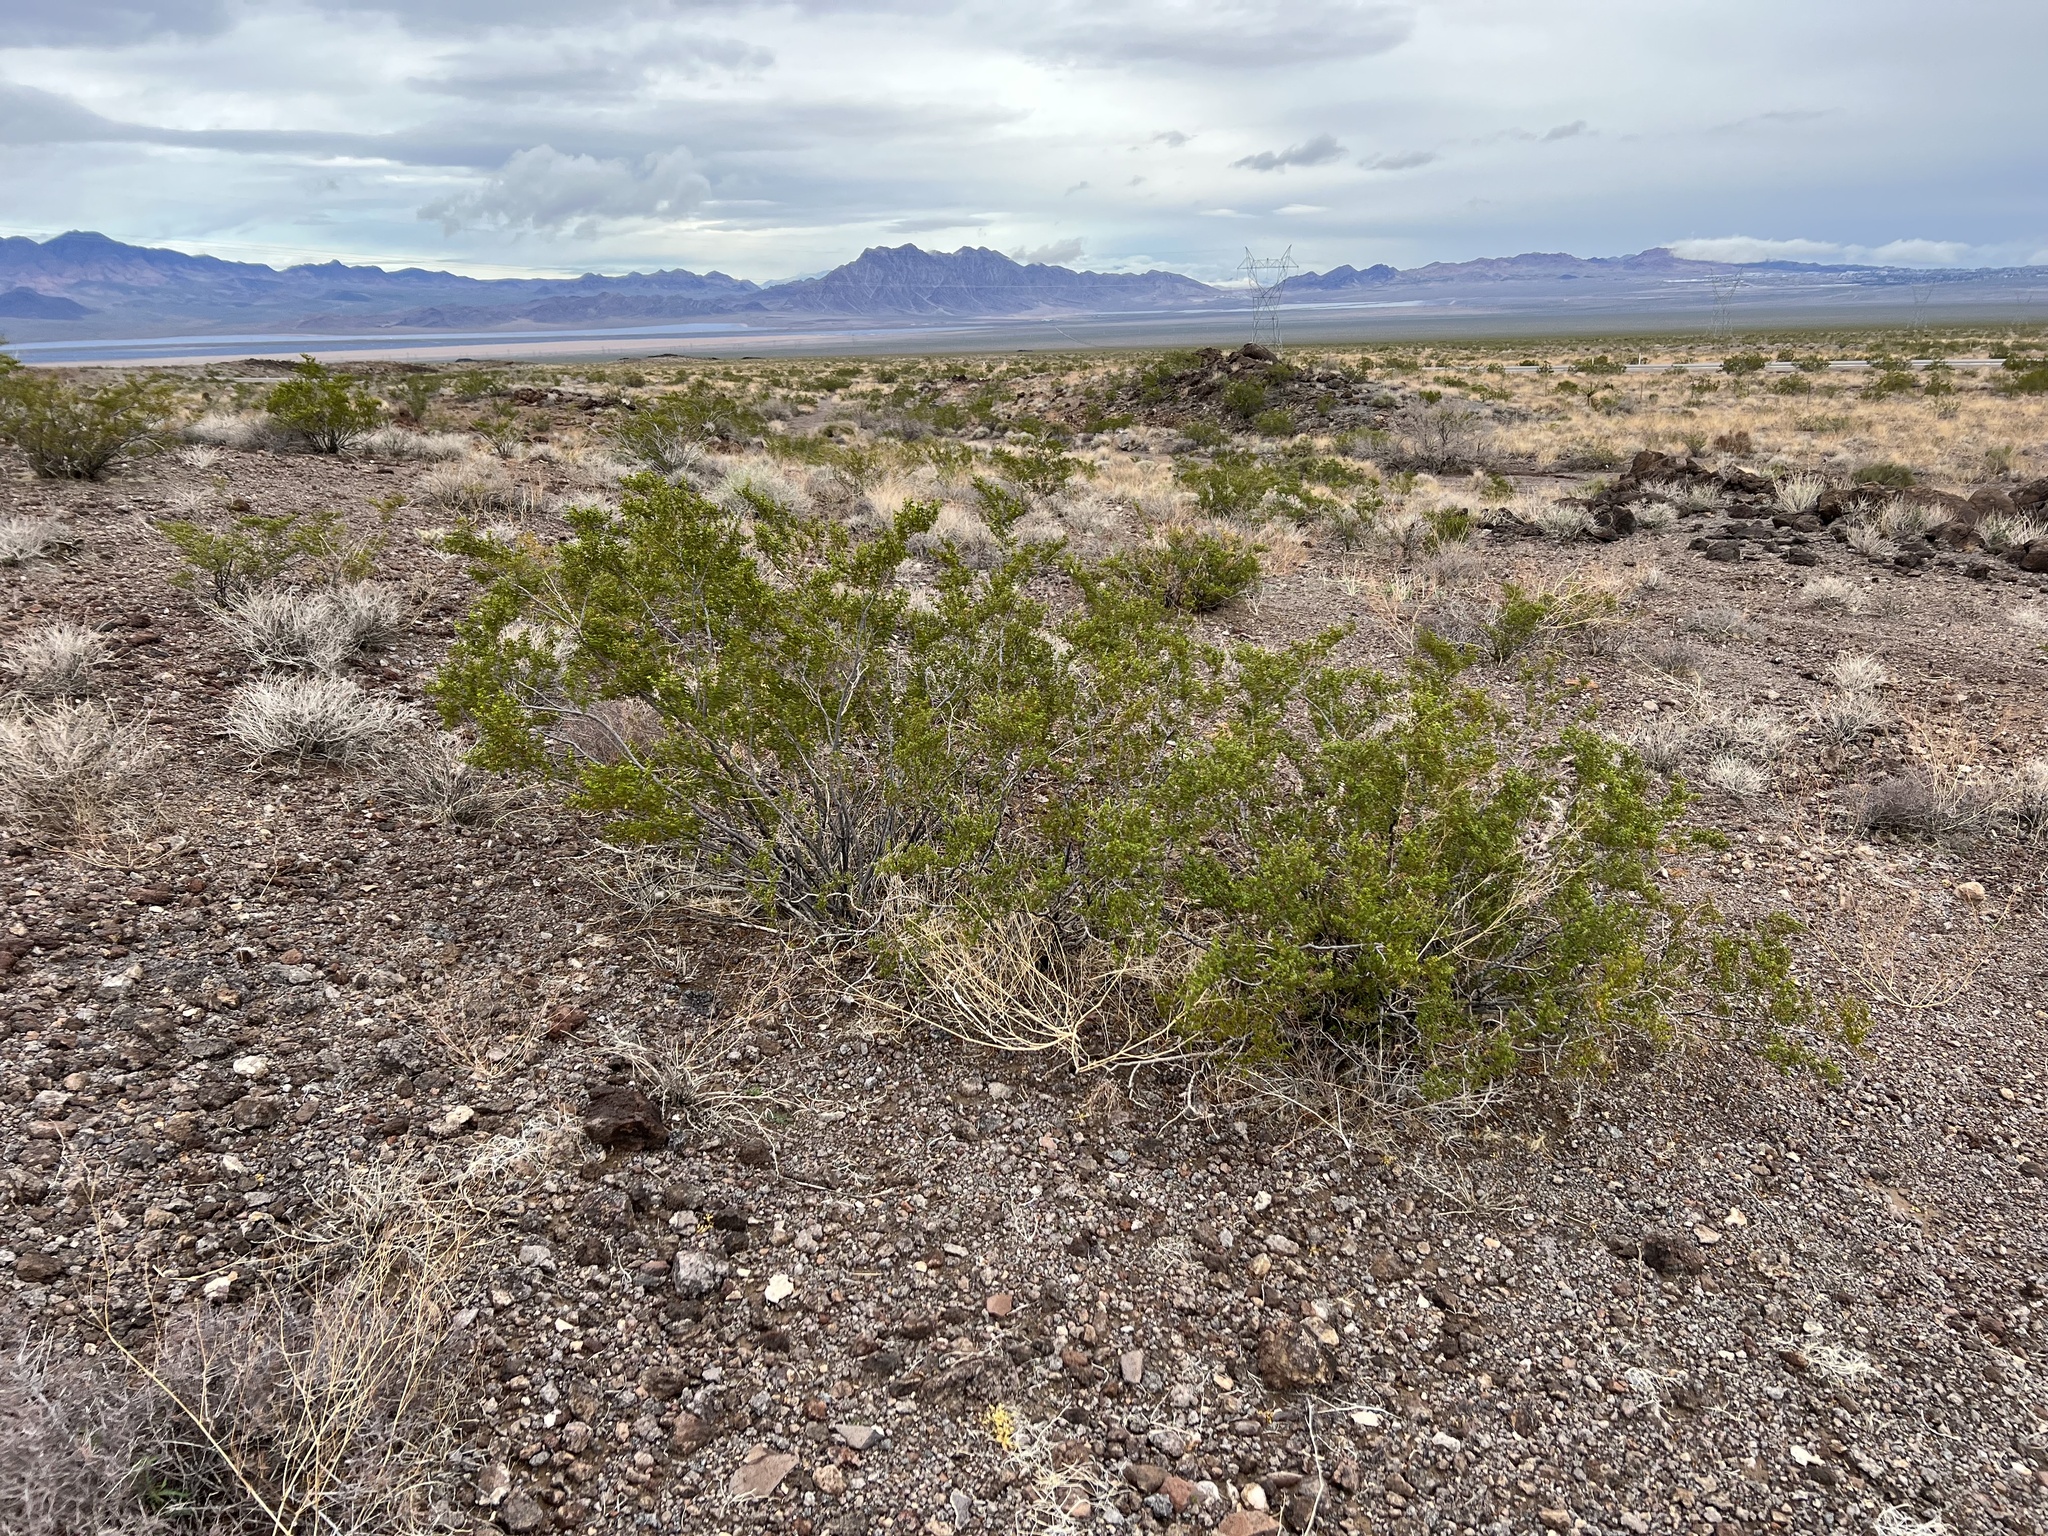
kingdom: Plantae
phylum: Tracheophyta
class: Magnoliopsida
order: Zygophyllales
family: Zygophyllaceae
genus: Larrea
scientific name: Larrea tridentata
